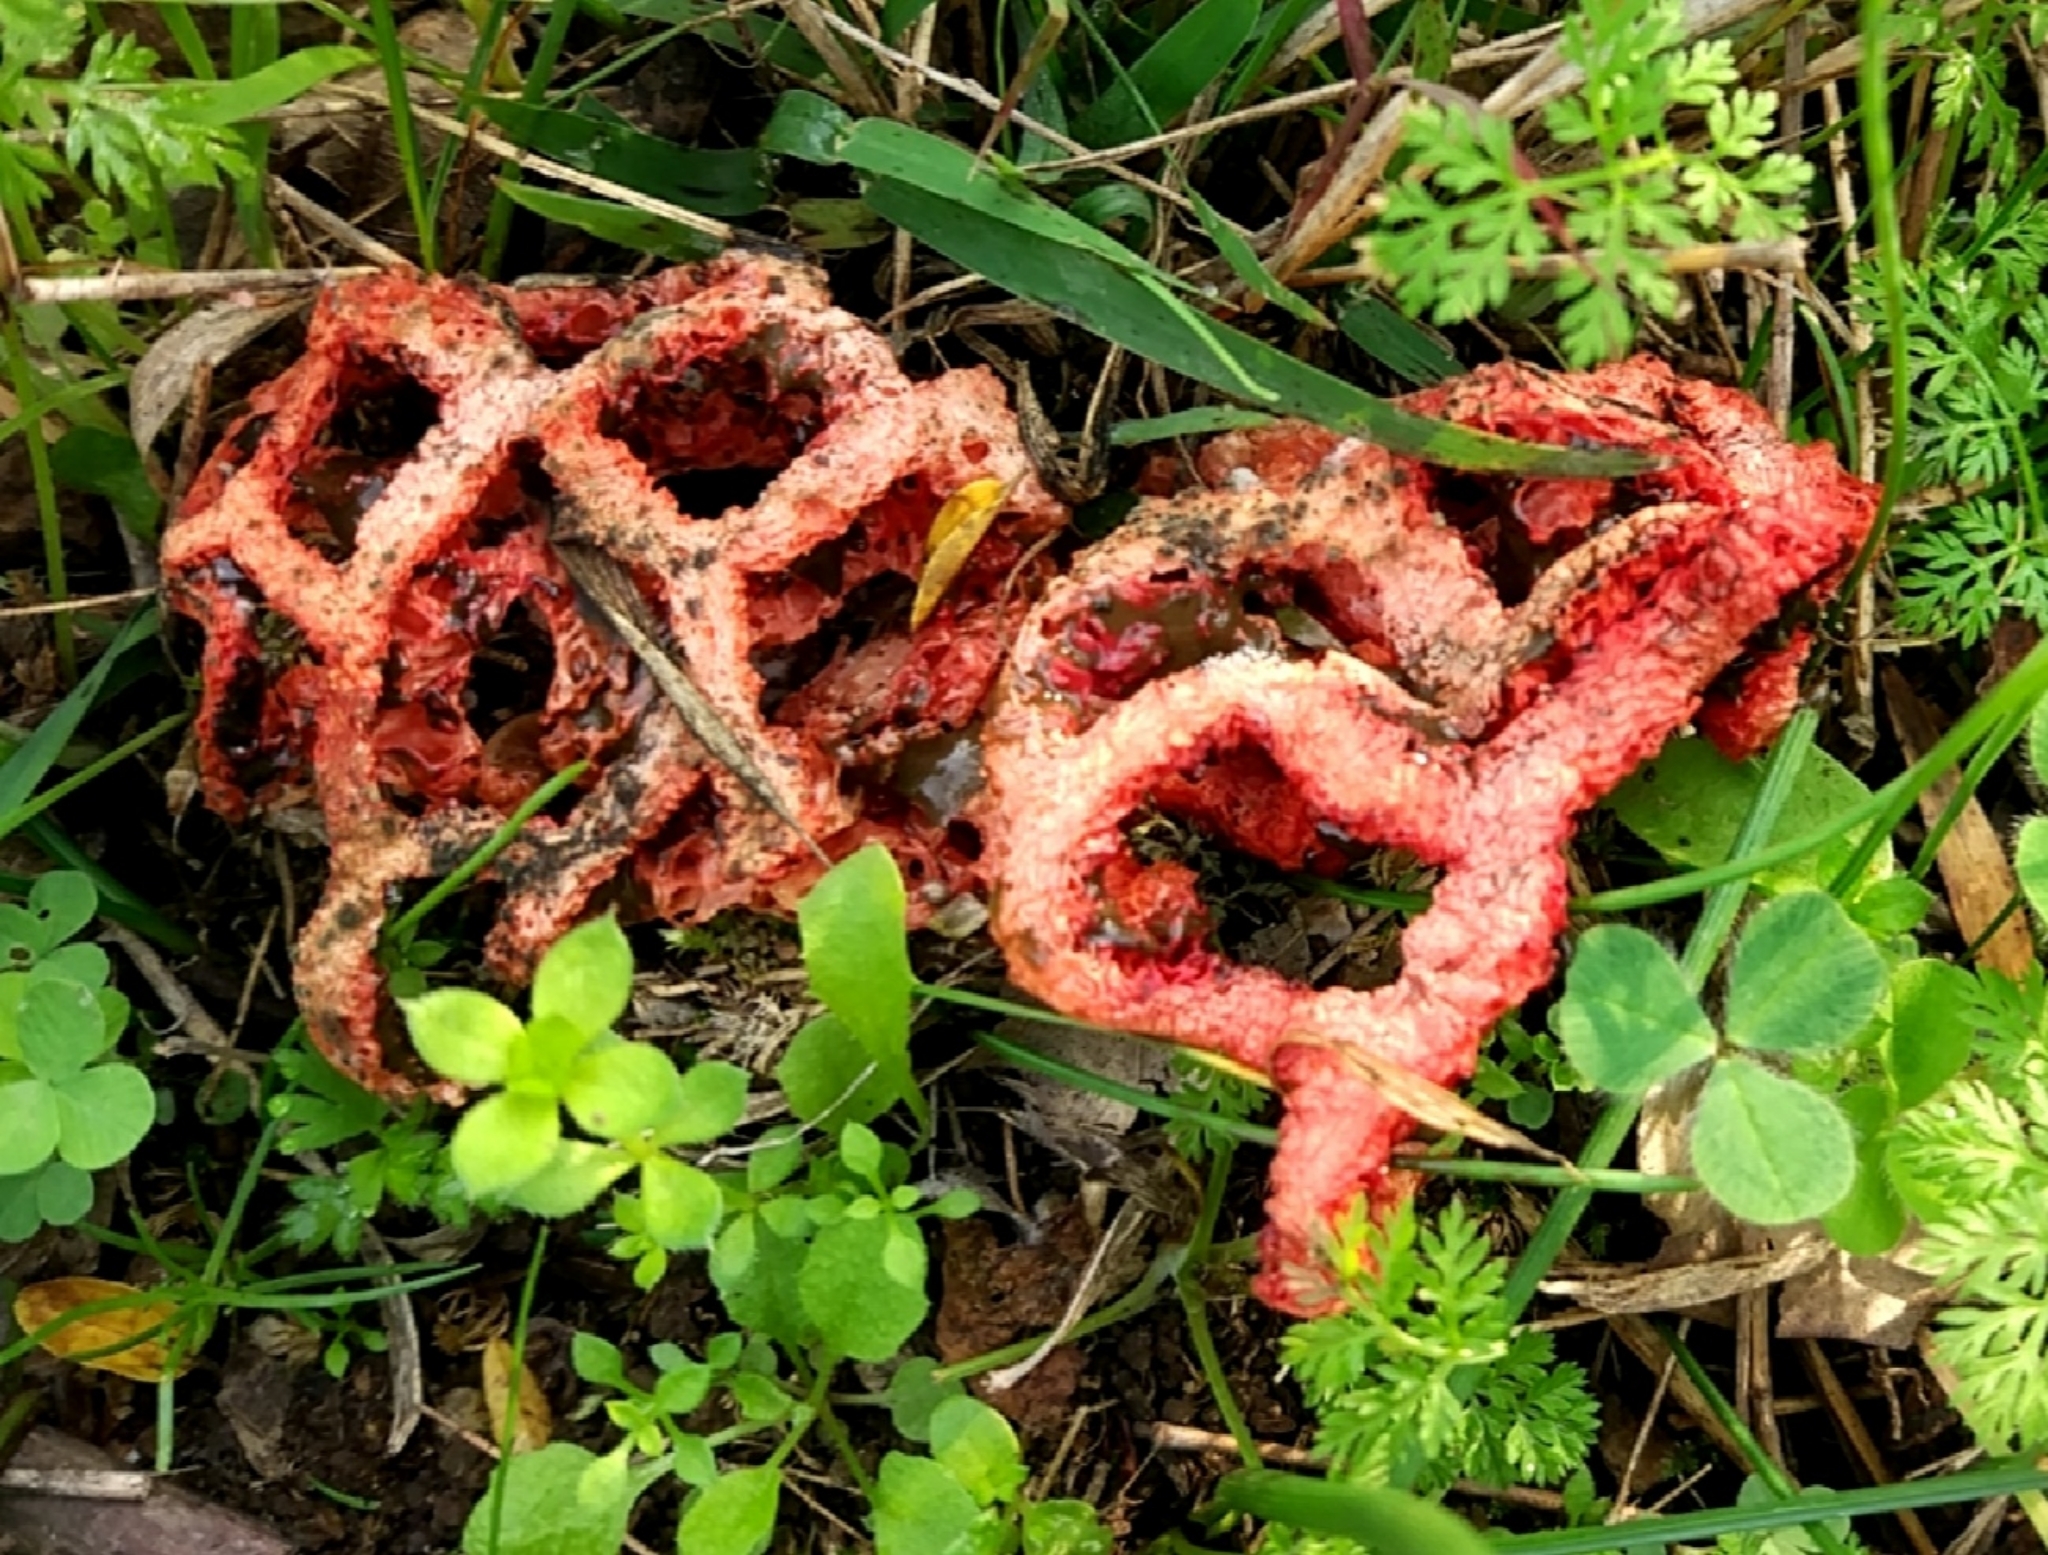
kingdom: Fungi
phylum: Basidiomycota
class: Agaricomycetes
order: Phallales
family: Phallaceae
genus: Clathrus
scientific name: Clathrus ruber
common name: Red cage
